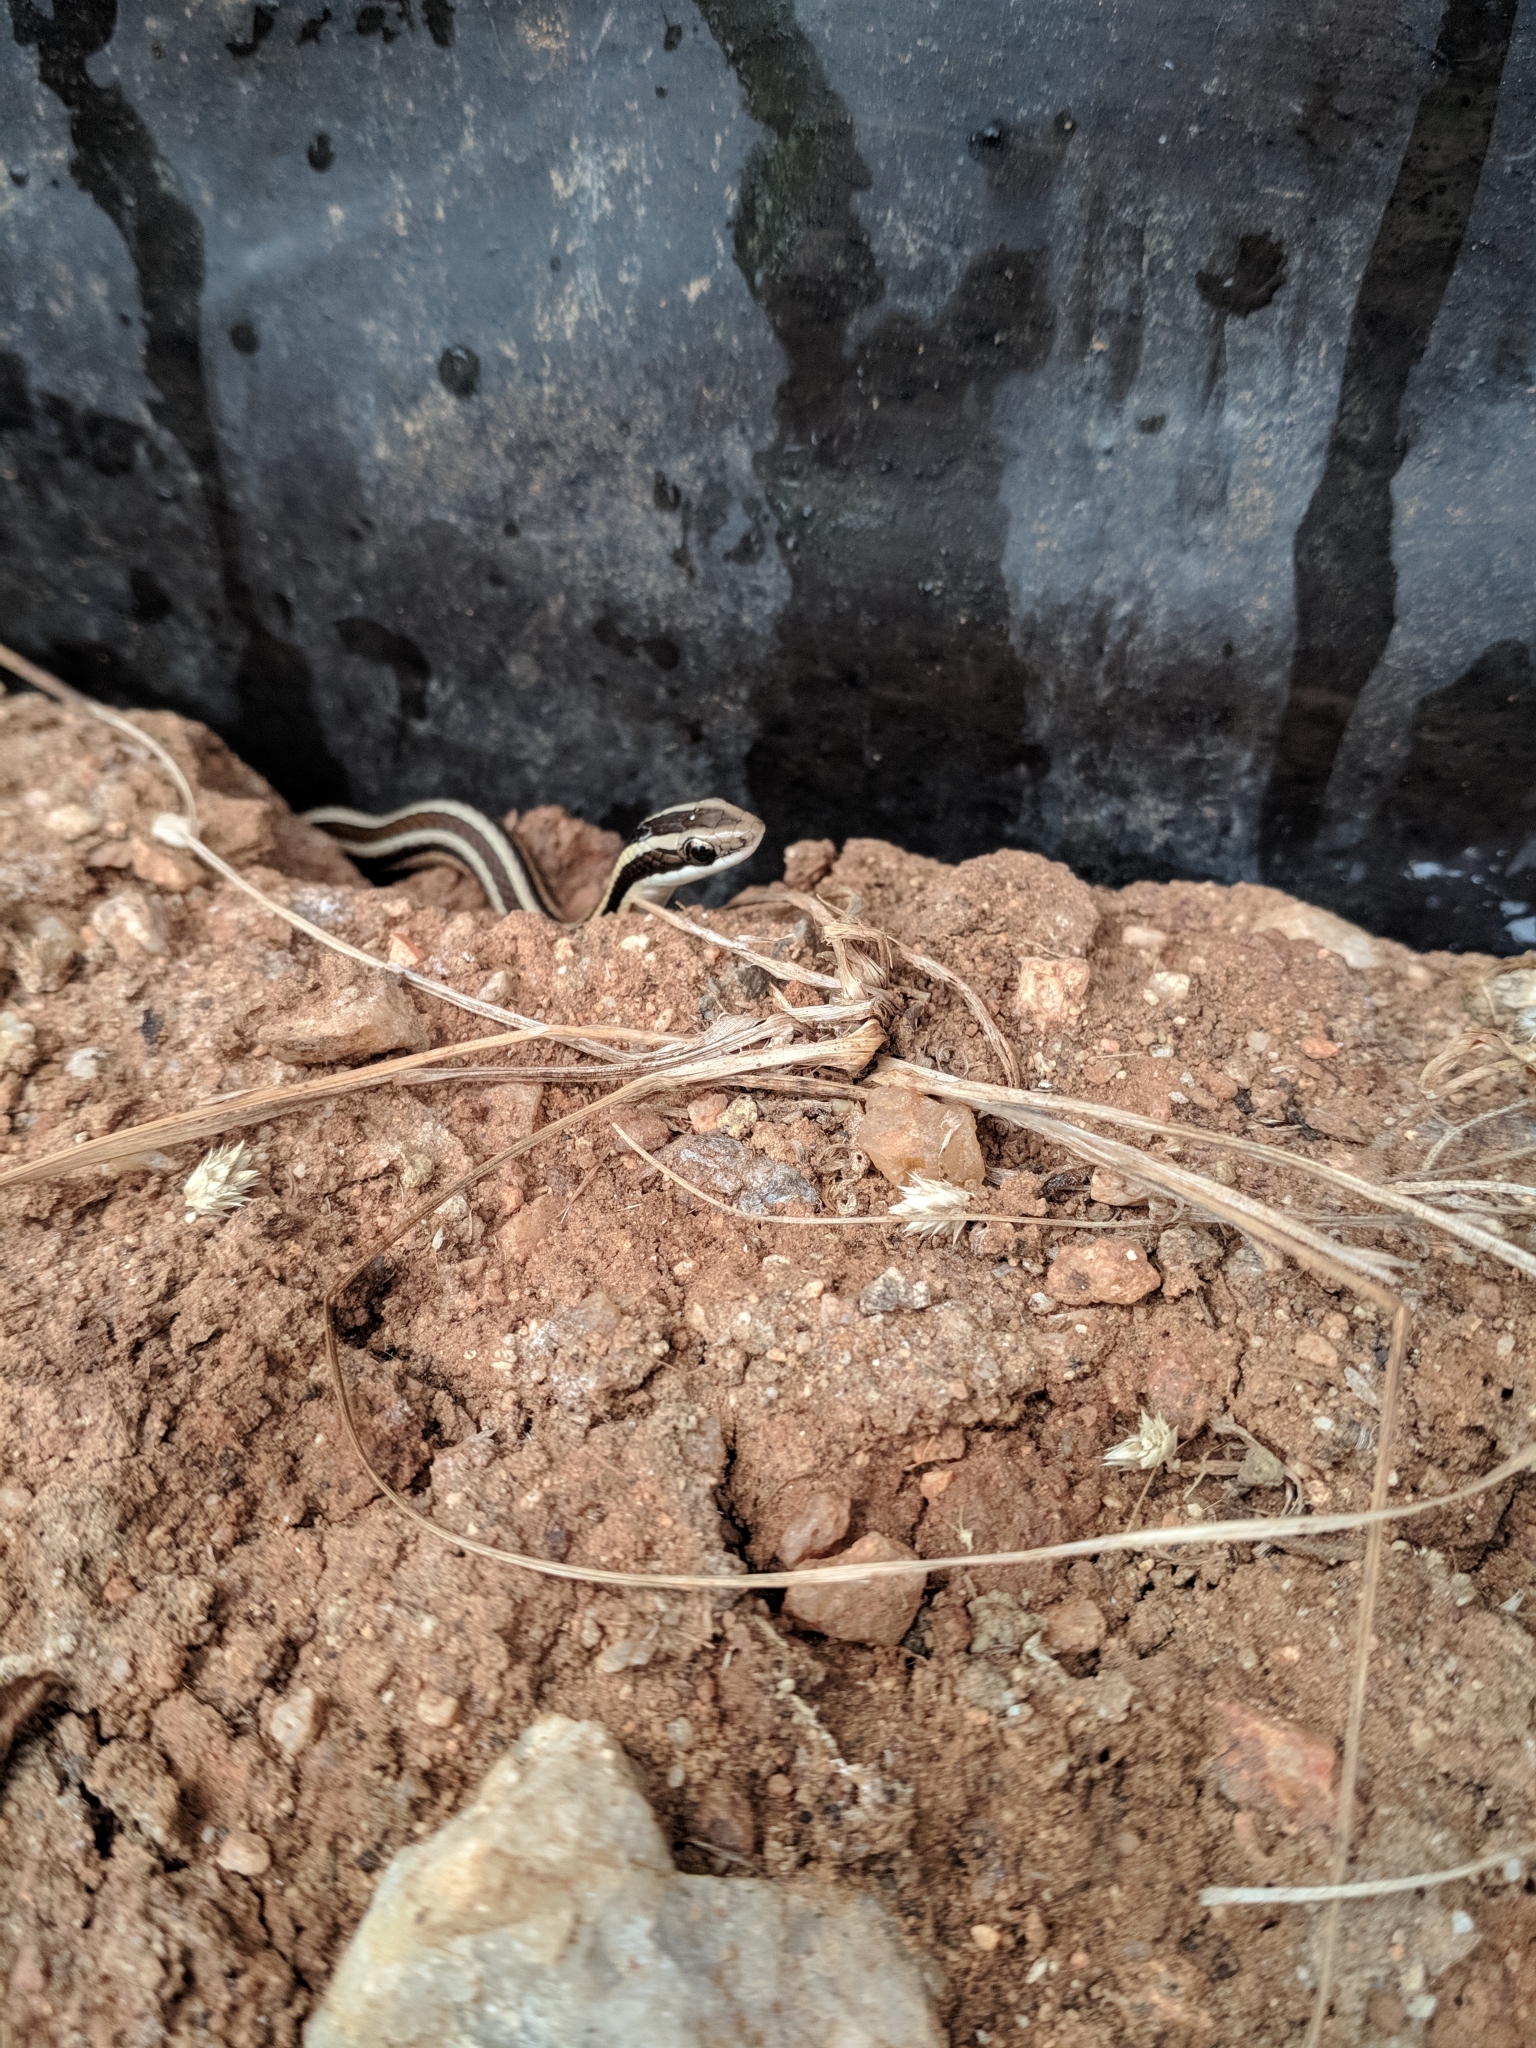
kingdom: Animalia
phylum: Chordata
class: Squamata
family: Colubridae
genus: Lygophis
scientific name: Lygophis dilepis
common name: Lema's ground snake
